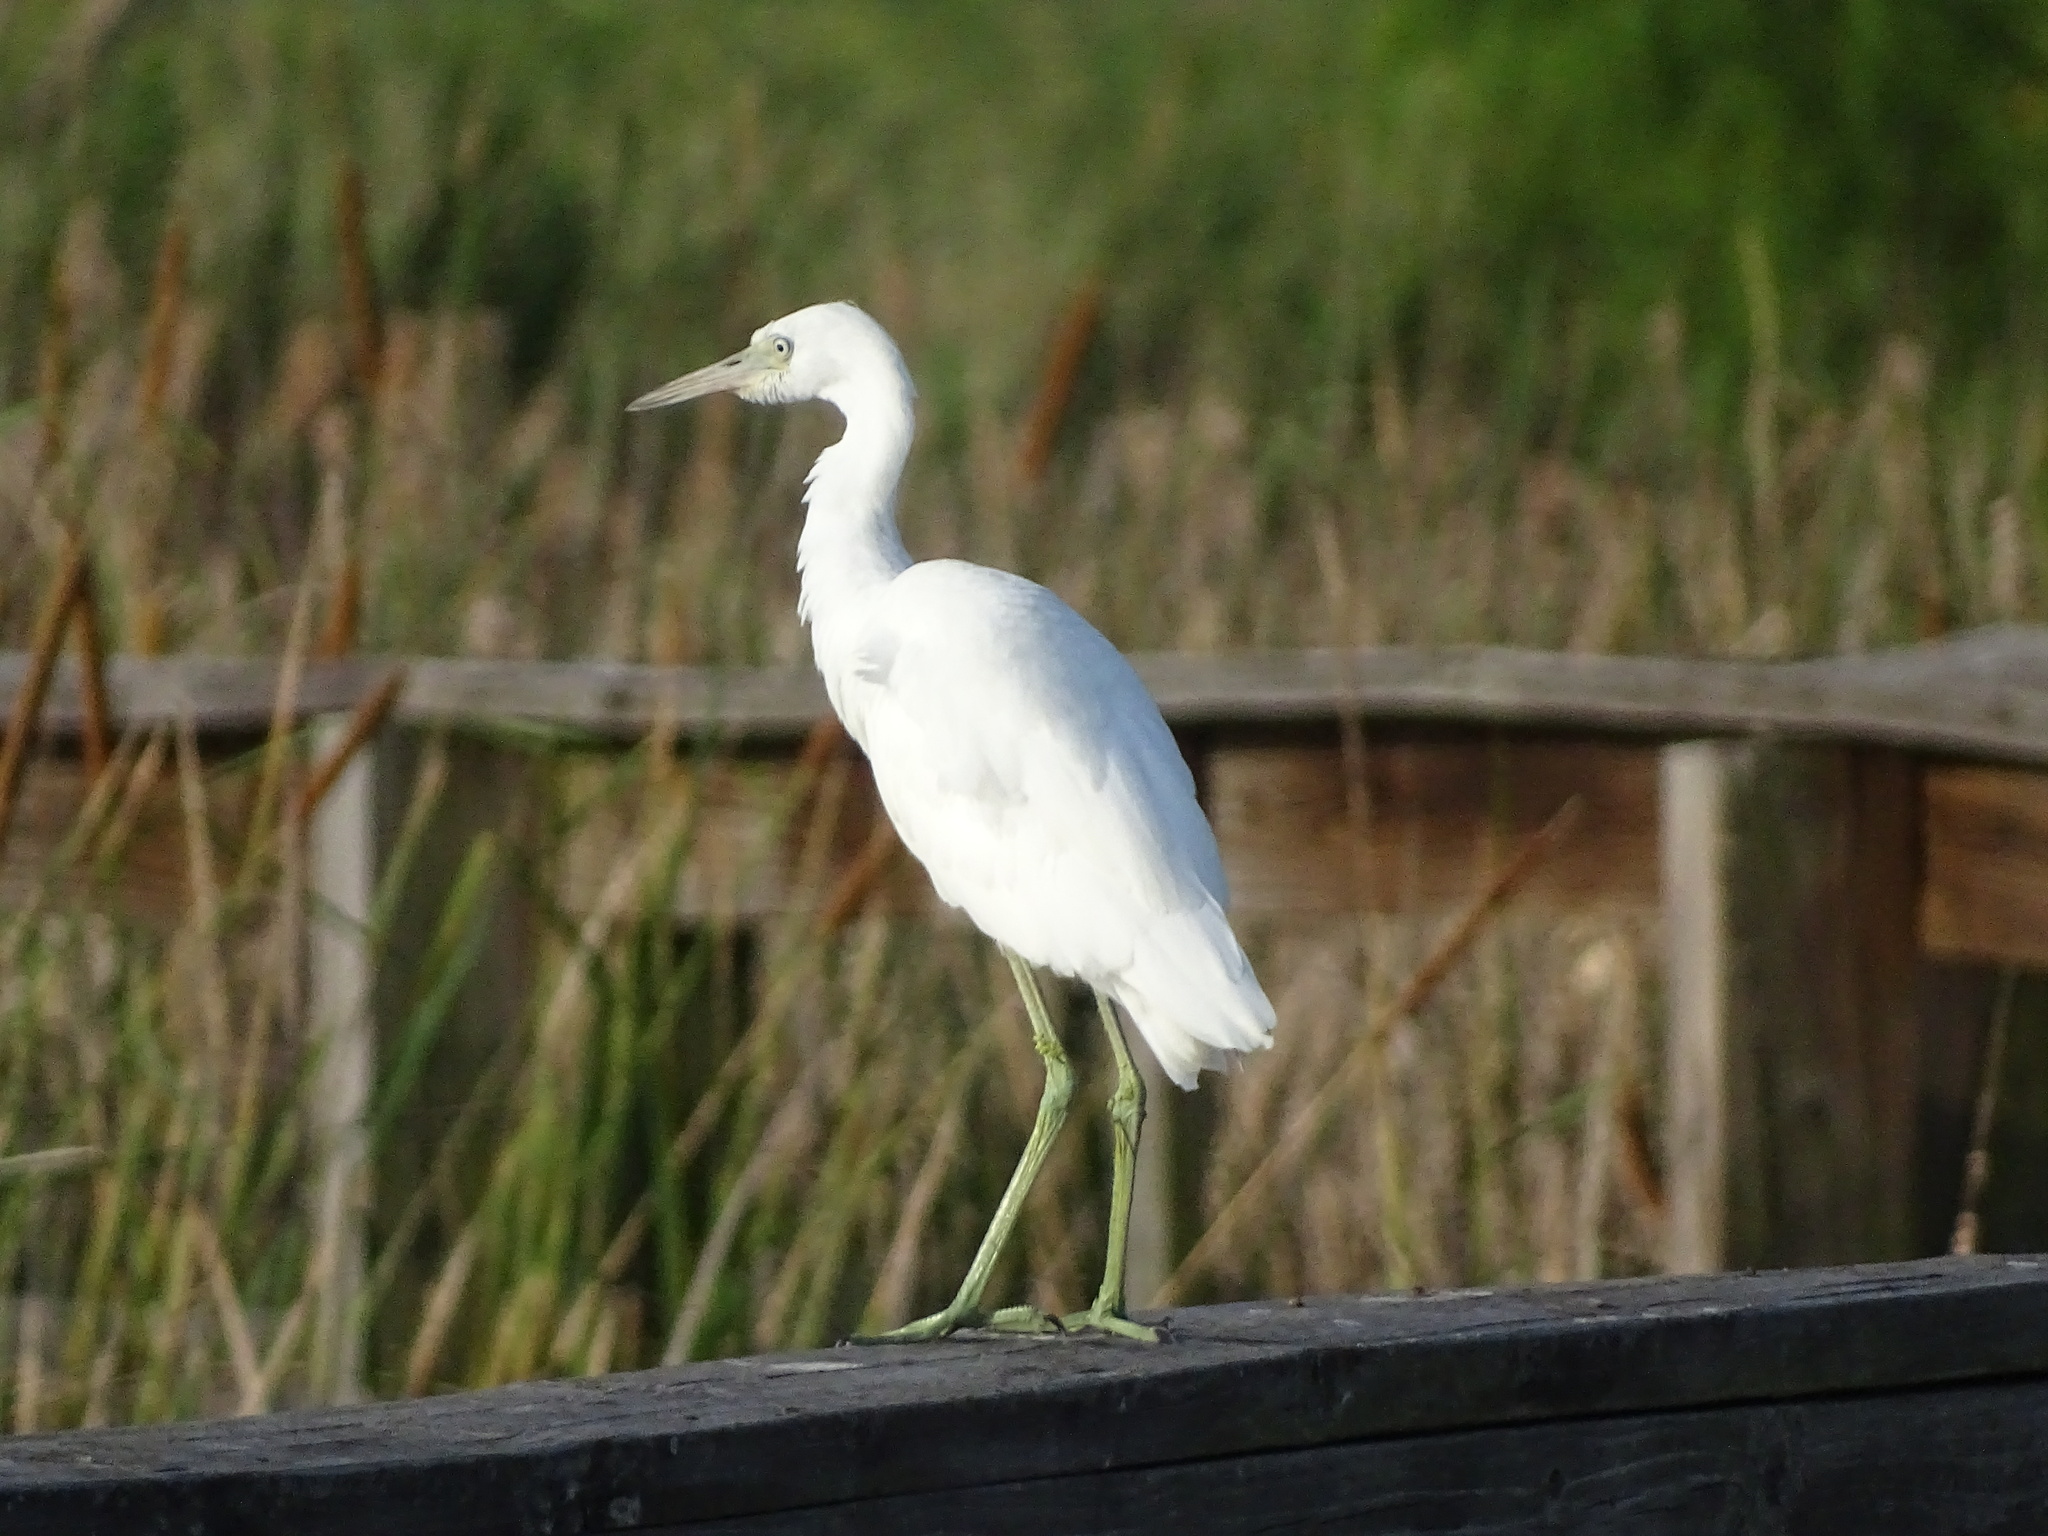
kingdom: Animalia
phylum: Chordata
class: Aves
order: Pelecaniformes
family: Ardeidae
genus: Egretta
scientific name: Egretta caerulea
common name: Little blue heron
